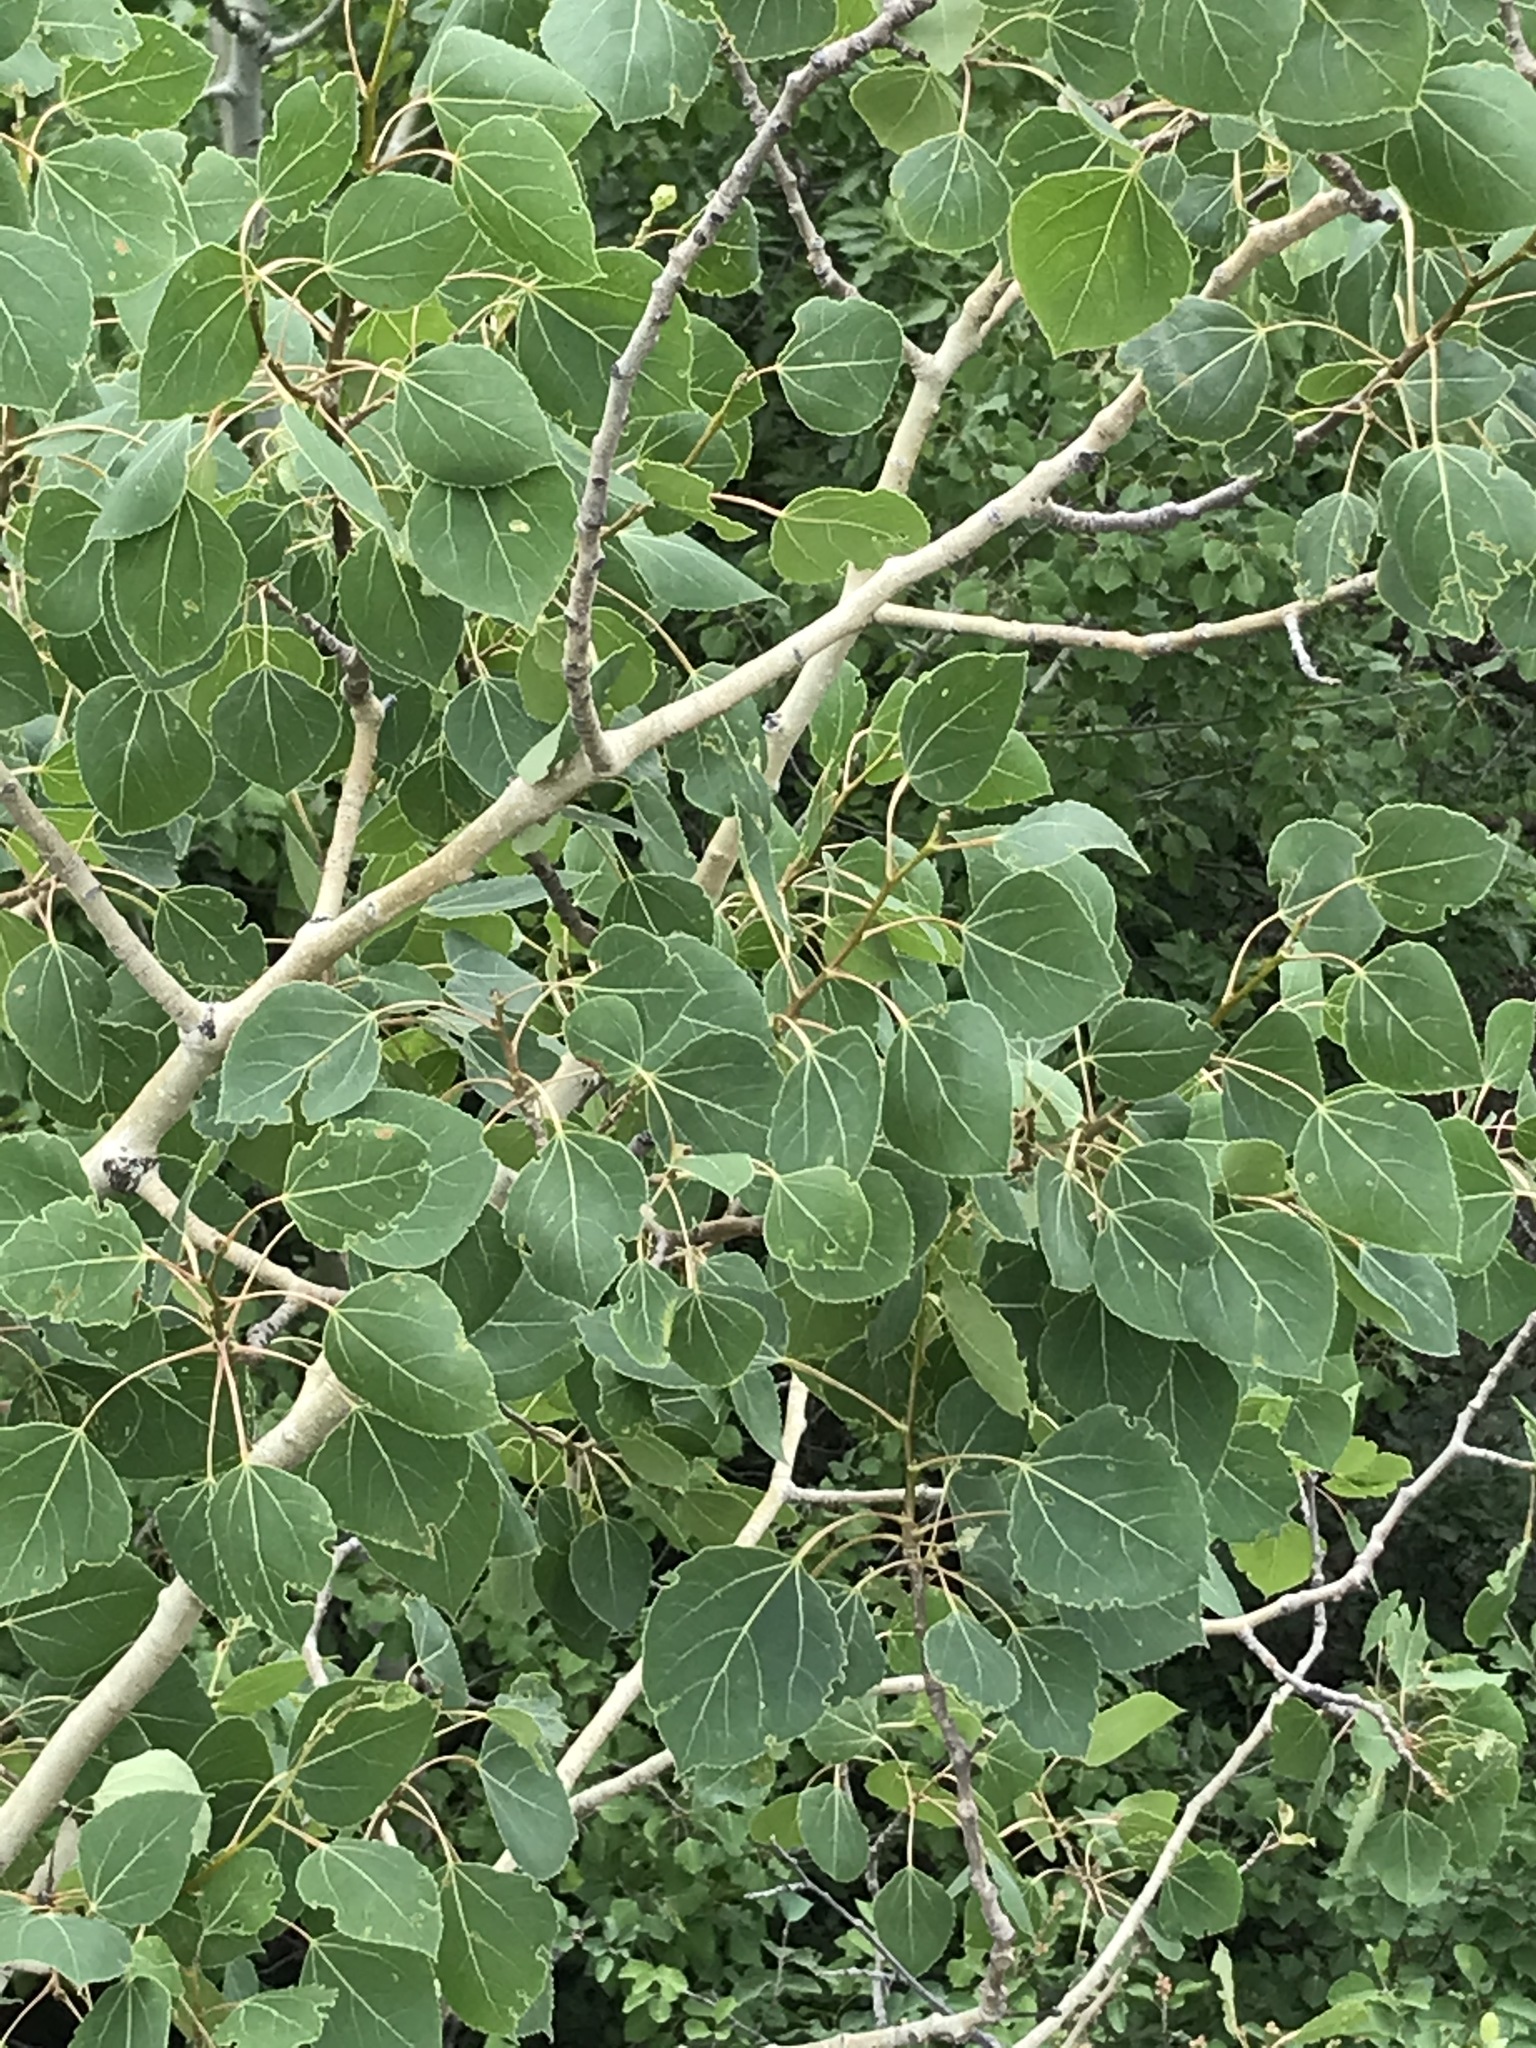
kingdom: Plantae
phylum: Tracheophyta
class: Magnoliopsida
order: Malpighiales
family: Salicaceae
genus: Populus
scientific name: Populus tremuloides
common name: Quaking aspen
